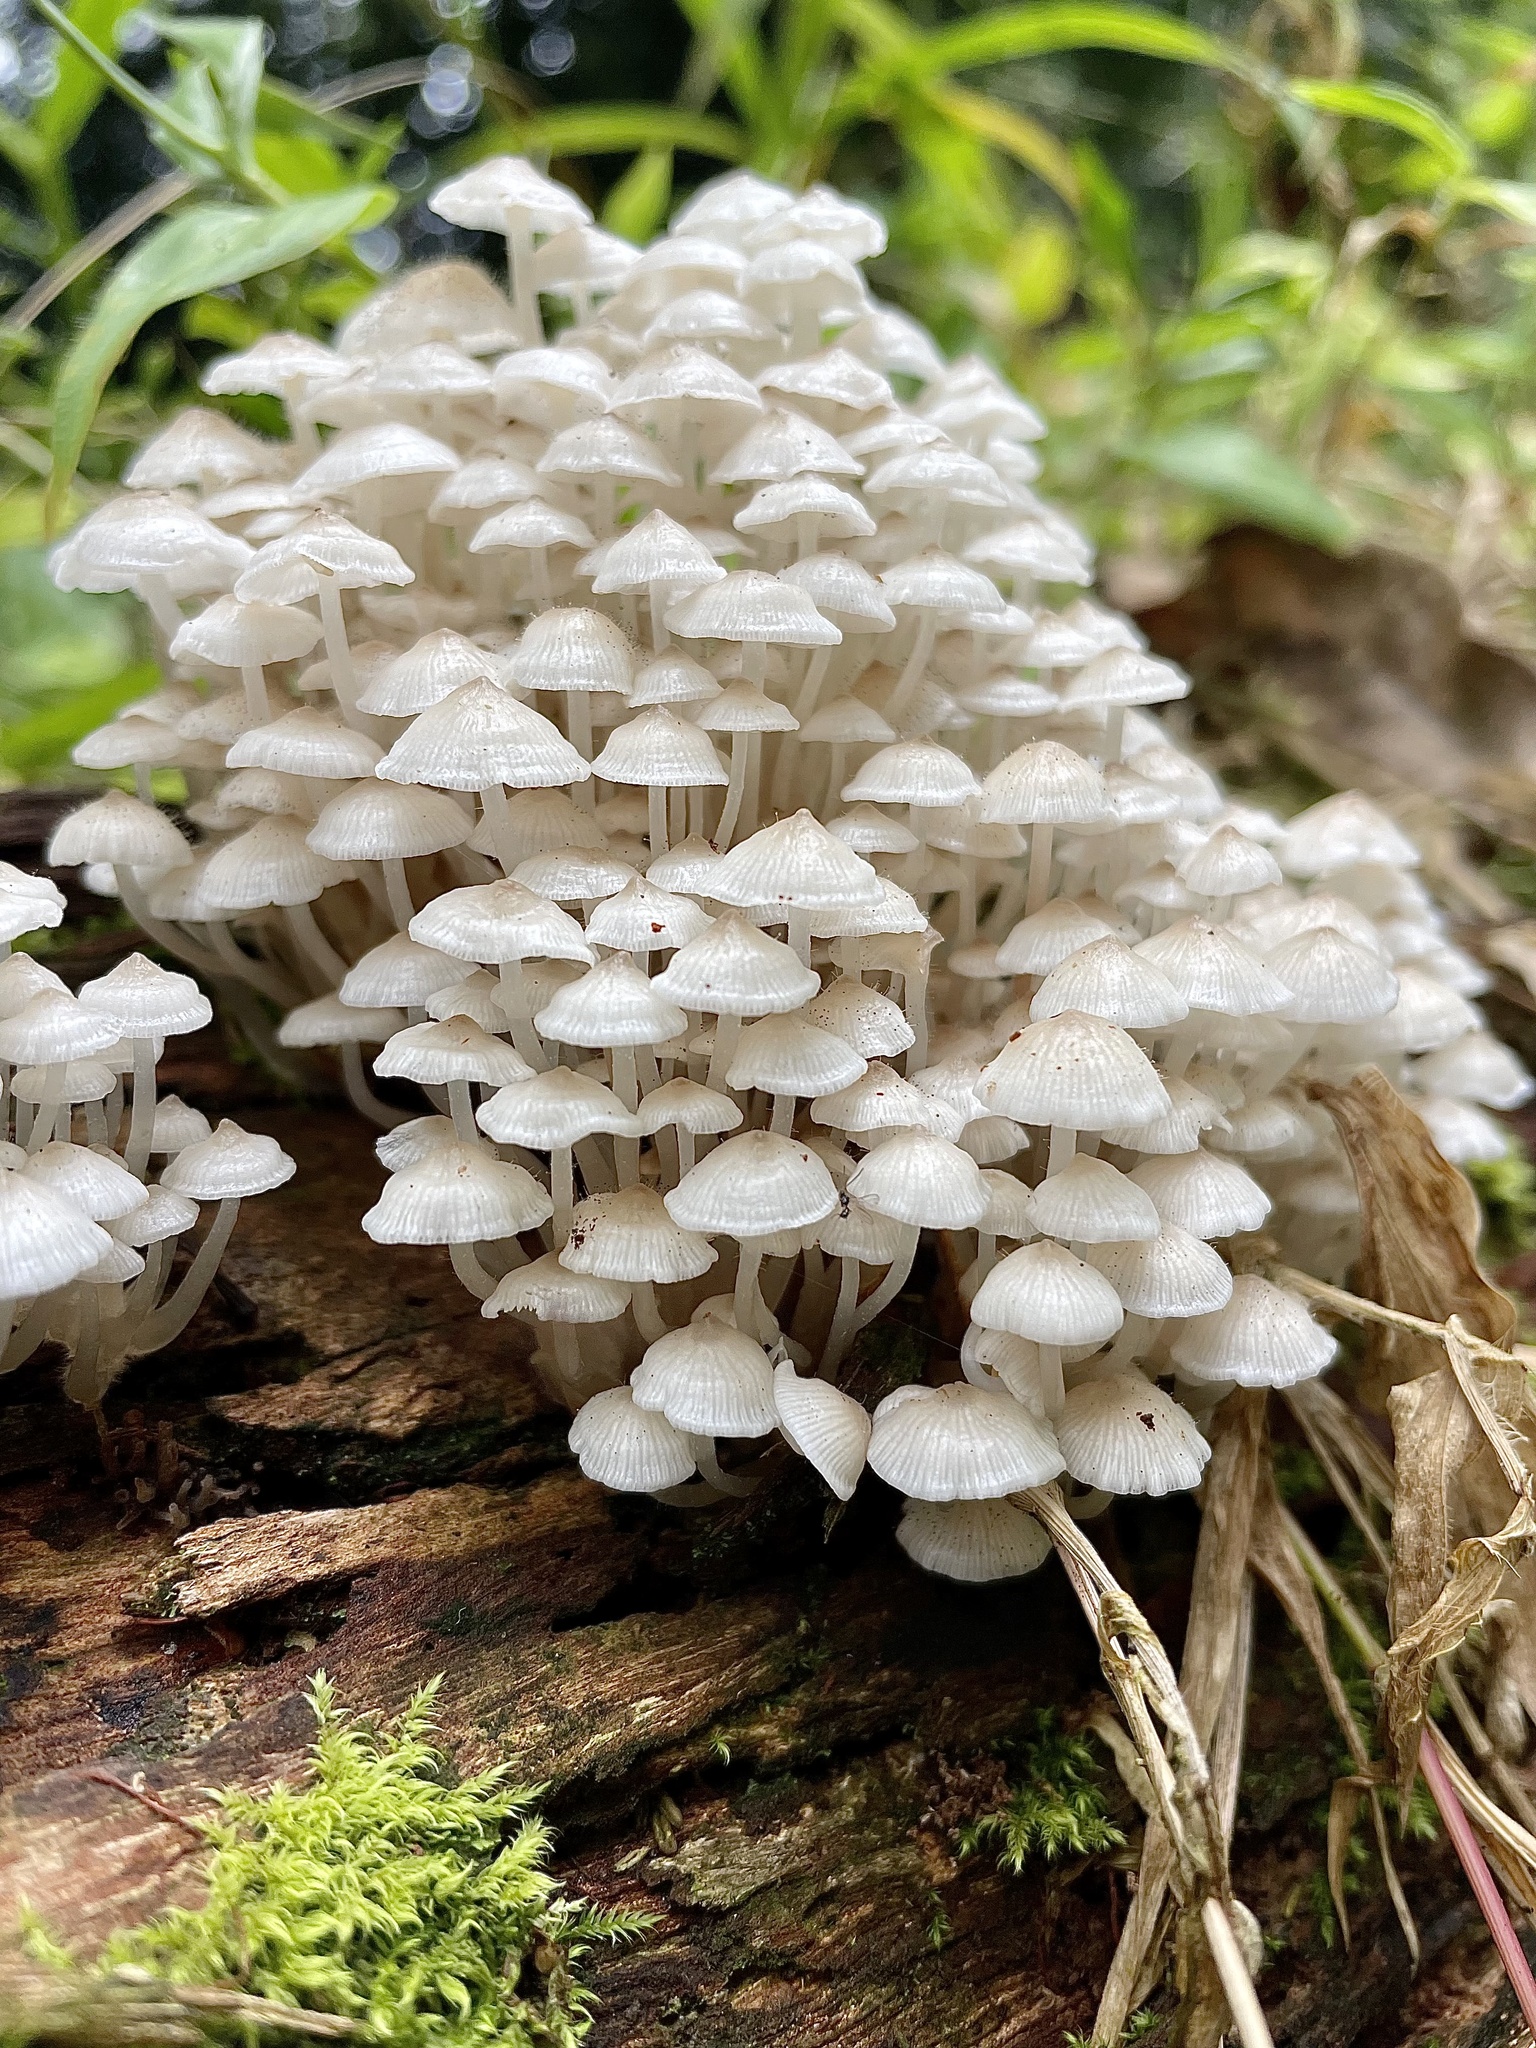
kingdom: Fungi
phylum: Basidiomycota
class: Agaricomycetes
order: Agaricales
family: Psathyrellaceae
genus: Coprinellus
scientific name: Coprinellus disseminatus
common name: Fairies' bonnets
